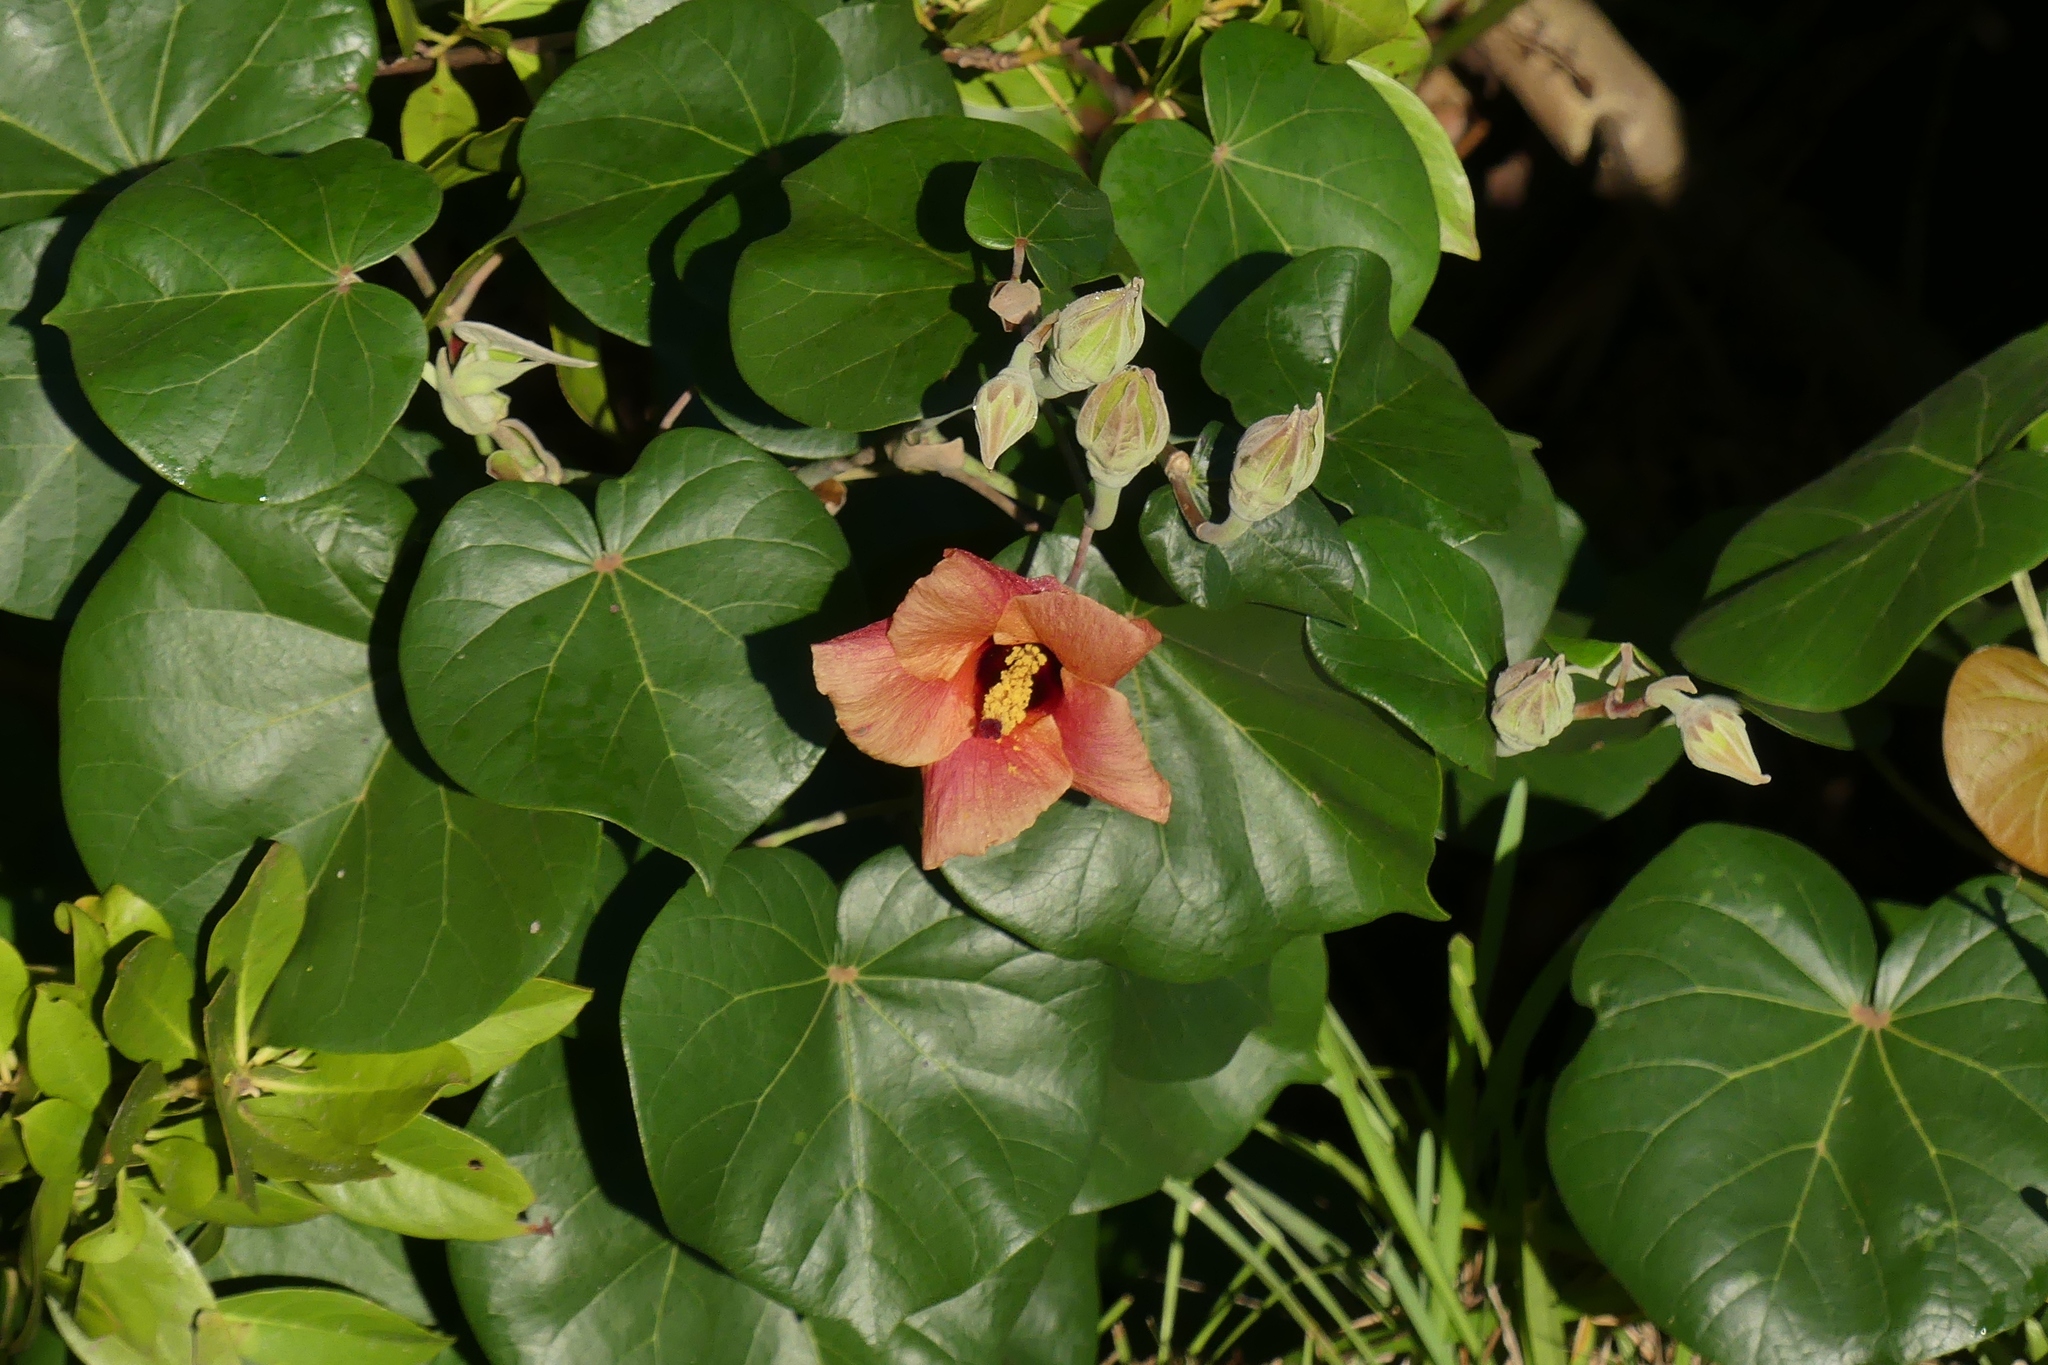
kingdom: Plantae
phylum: Tracheophyta
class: Magnoliopsida
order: Malvales
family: Malvaceae
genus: Talipariti
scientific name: Talipariti tiliaceum
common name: Sea hibiscus
